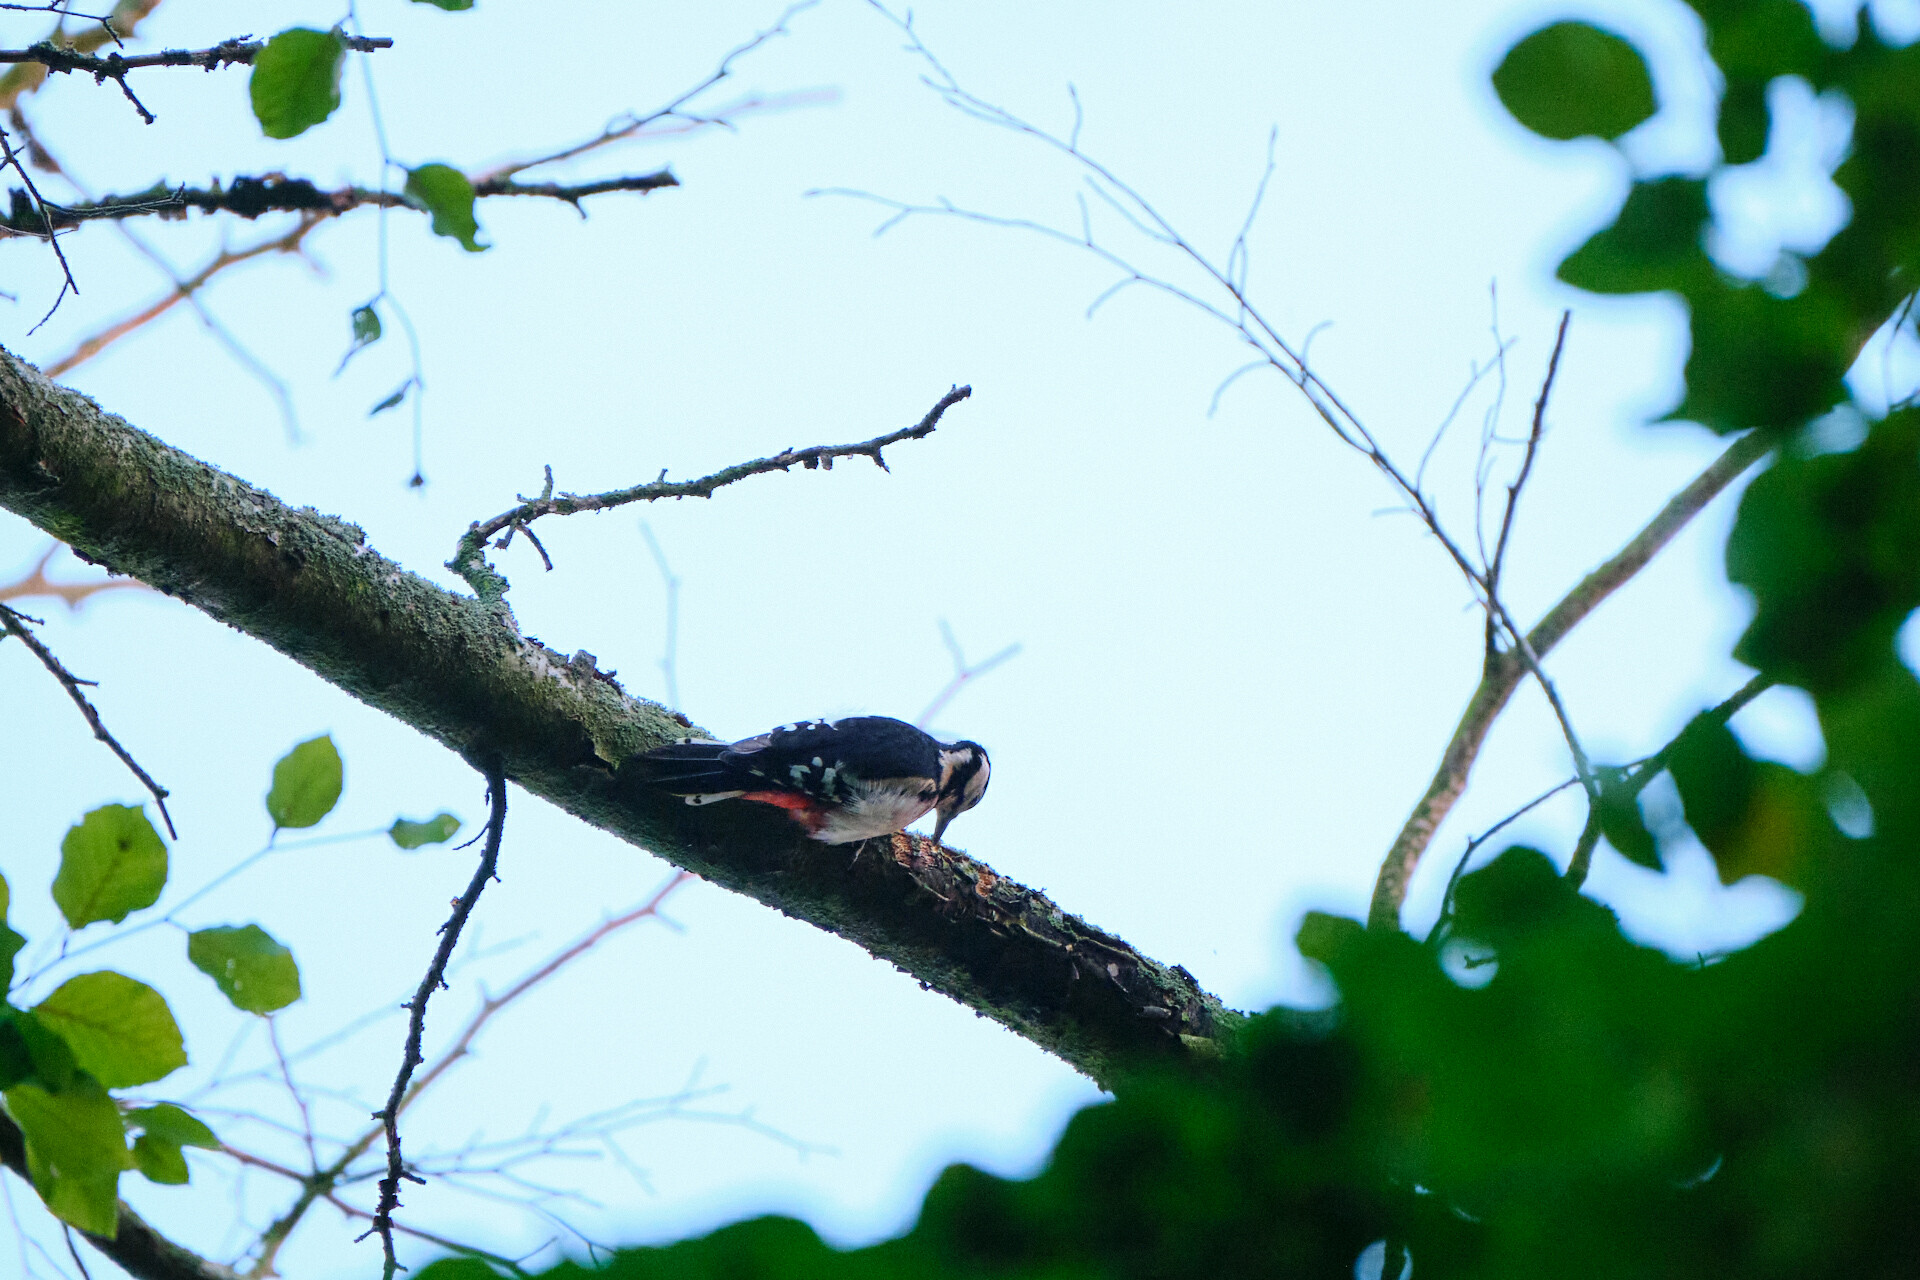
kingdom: Animalia
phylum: Chordata
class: Aves
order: Piciformes
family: Picidae
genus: Dendrocopos
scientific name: Dendrocopos major
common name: Great spotted woodpecker
